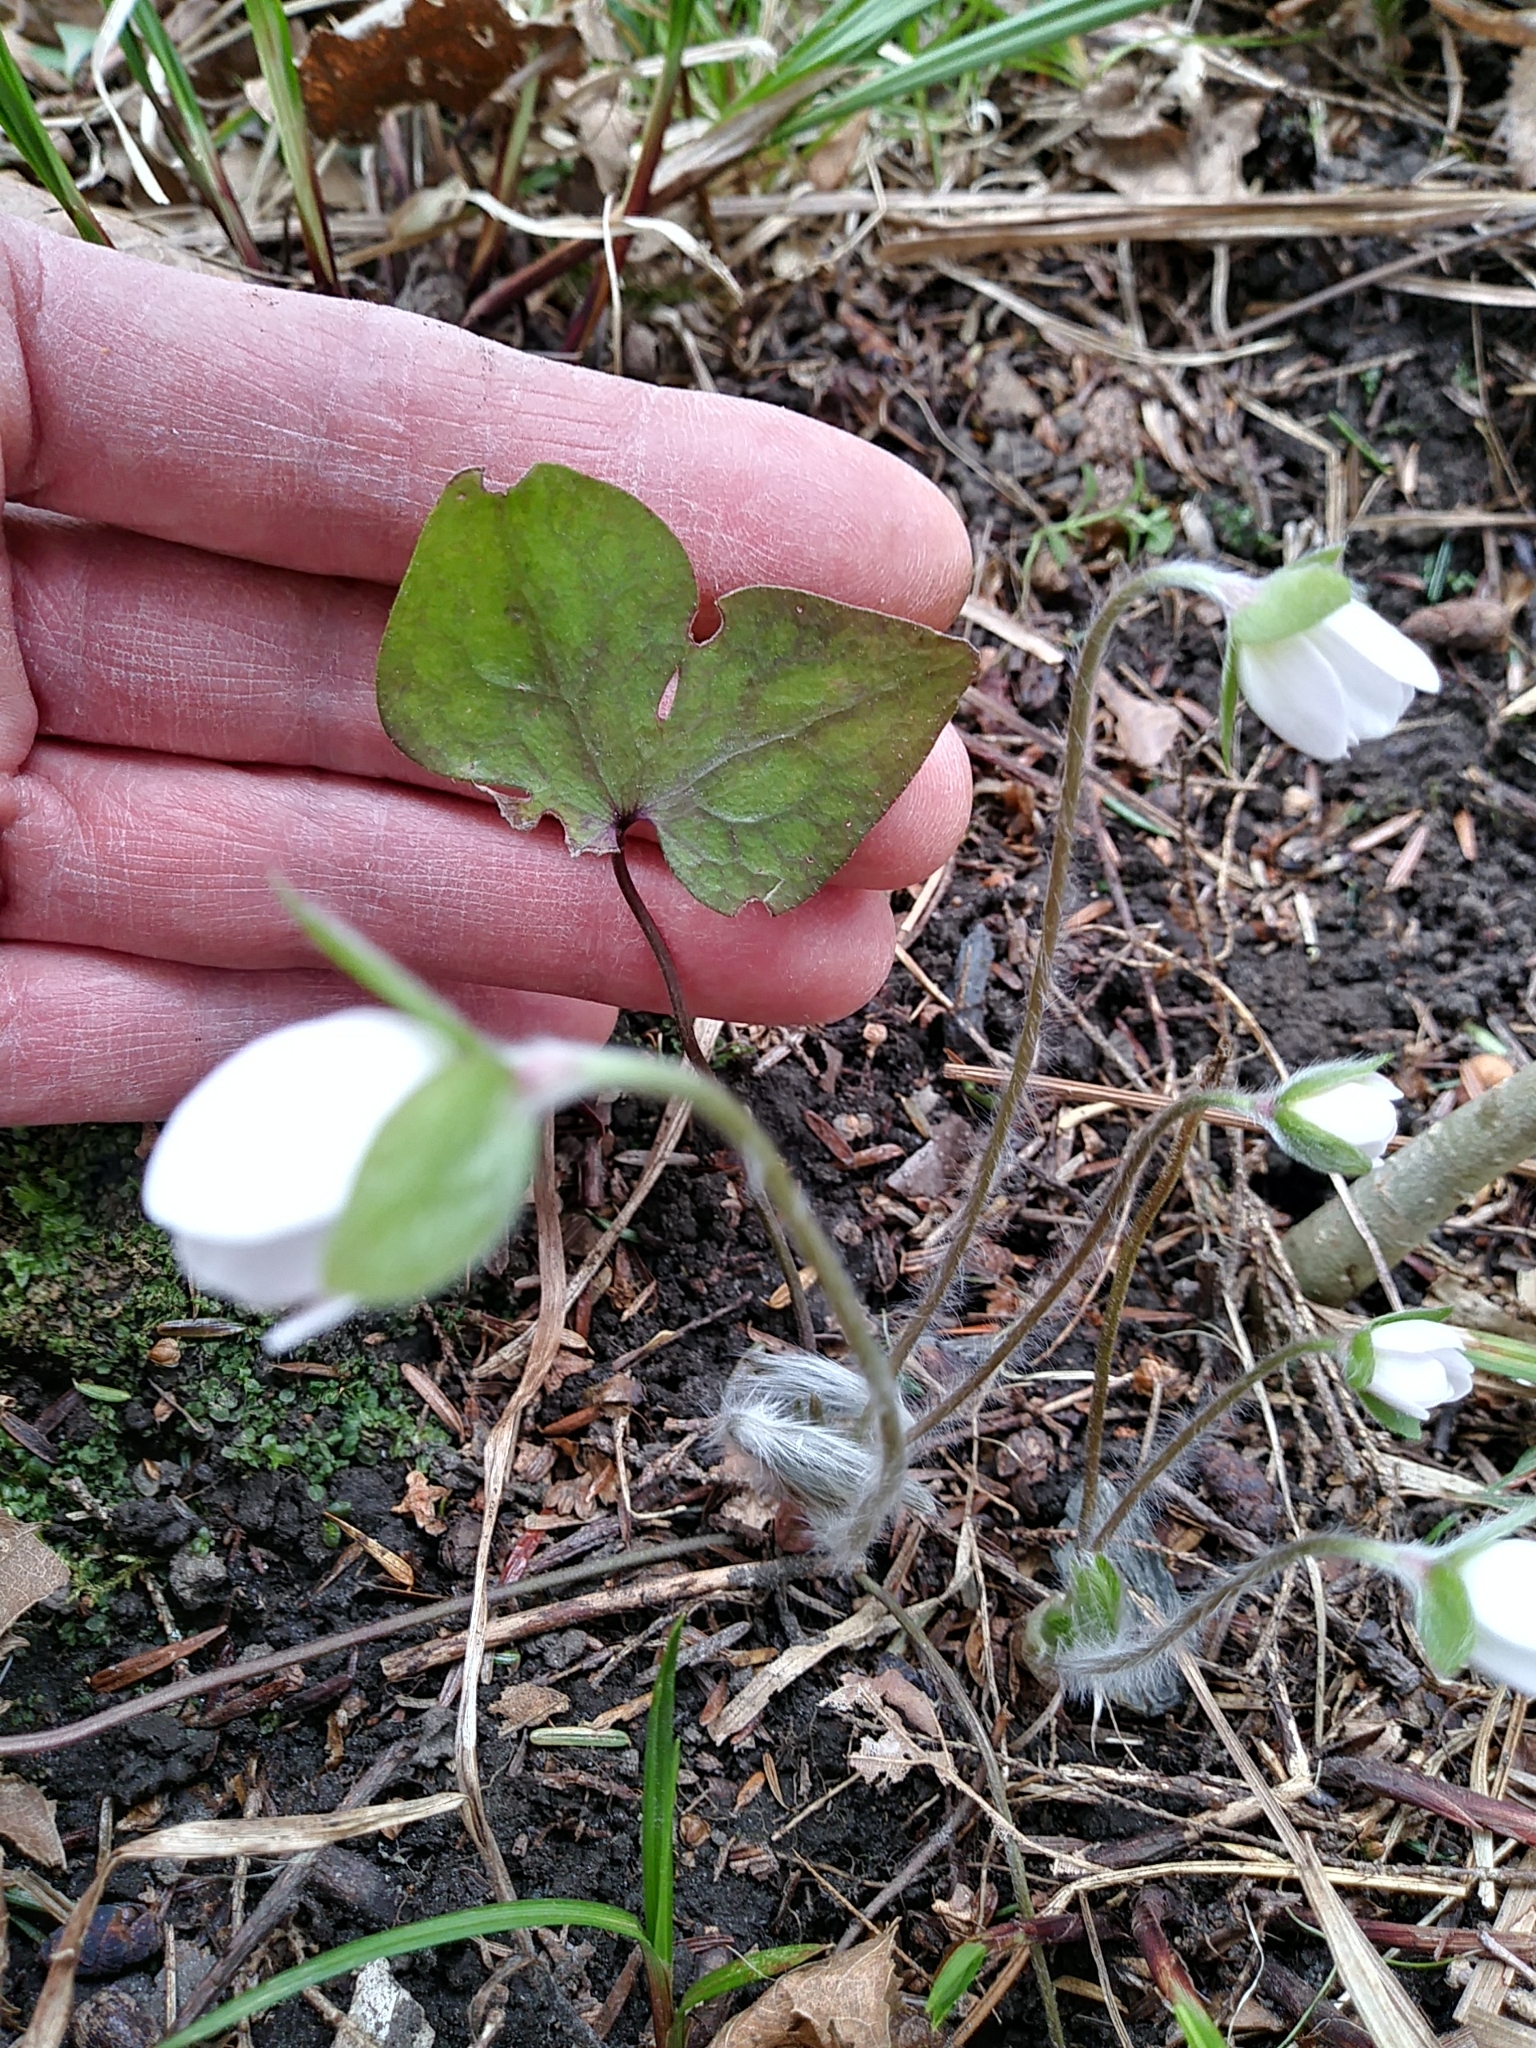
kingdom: Plantae
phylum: Tracheophyta
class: Magnoliopsida
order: Ranunculales
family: Ranunculaceae
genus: Hepatica
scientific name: Hepatica acutiloba
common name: Sharp-lobed hepatica
